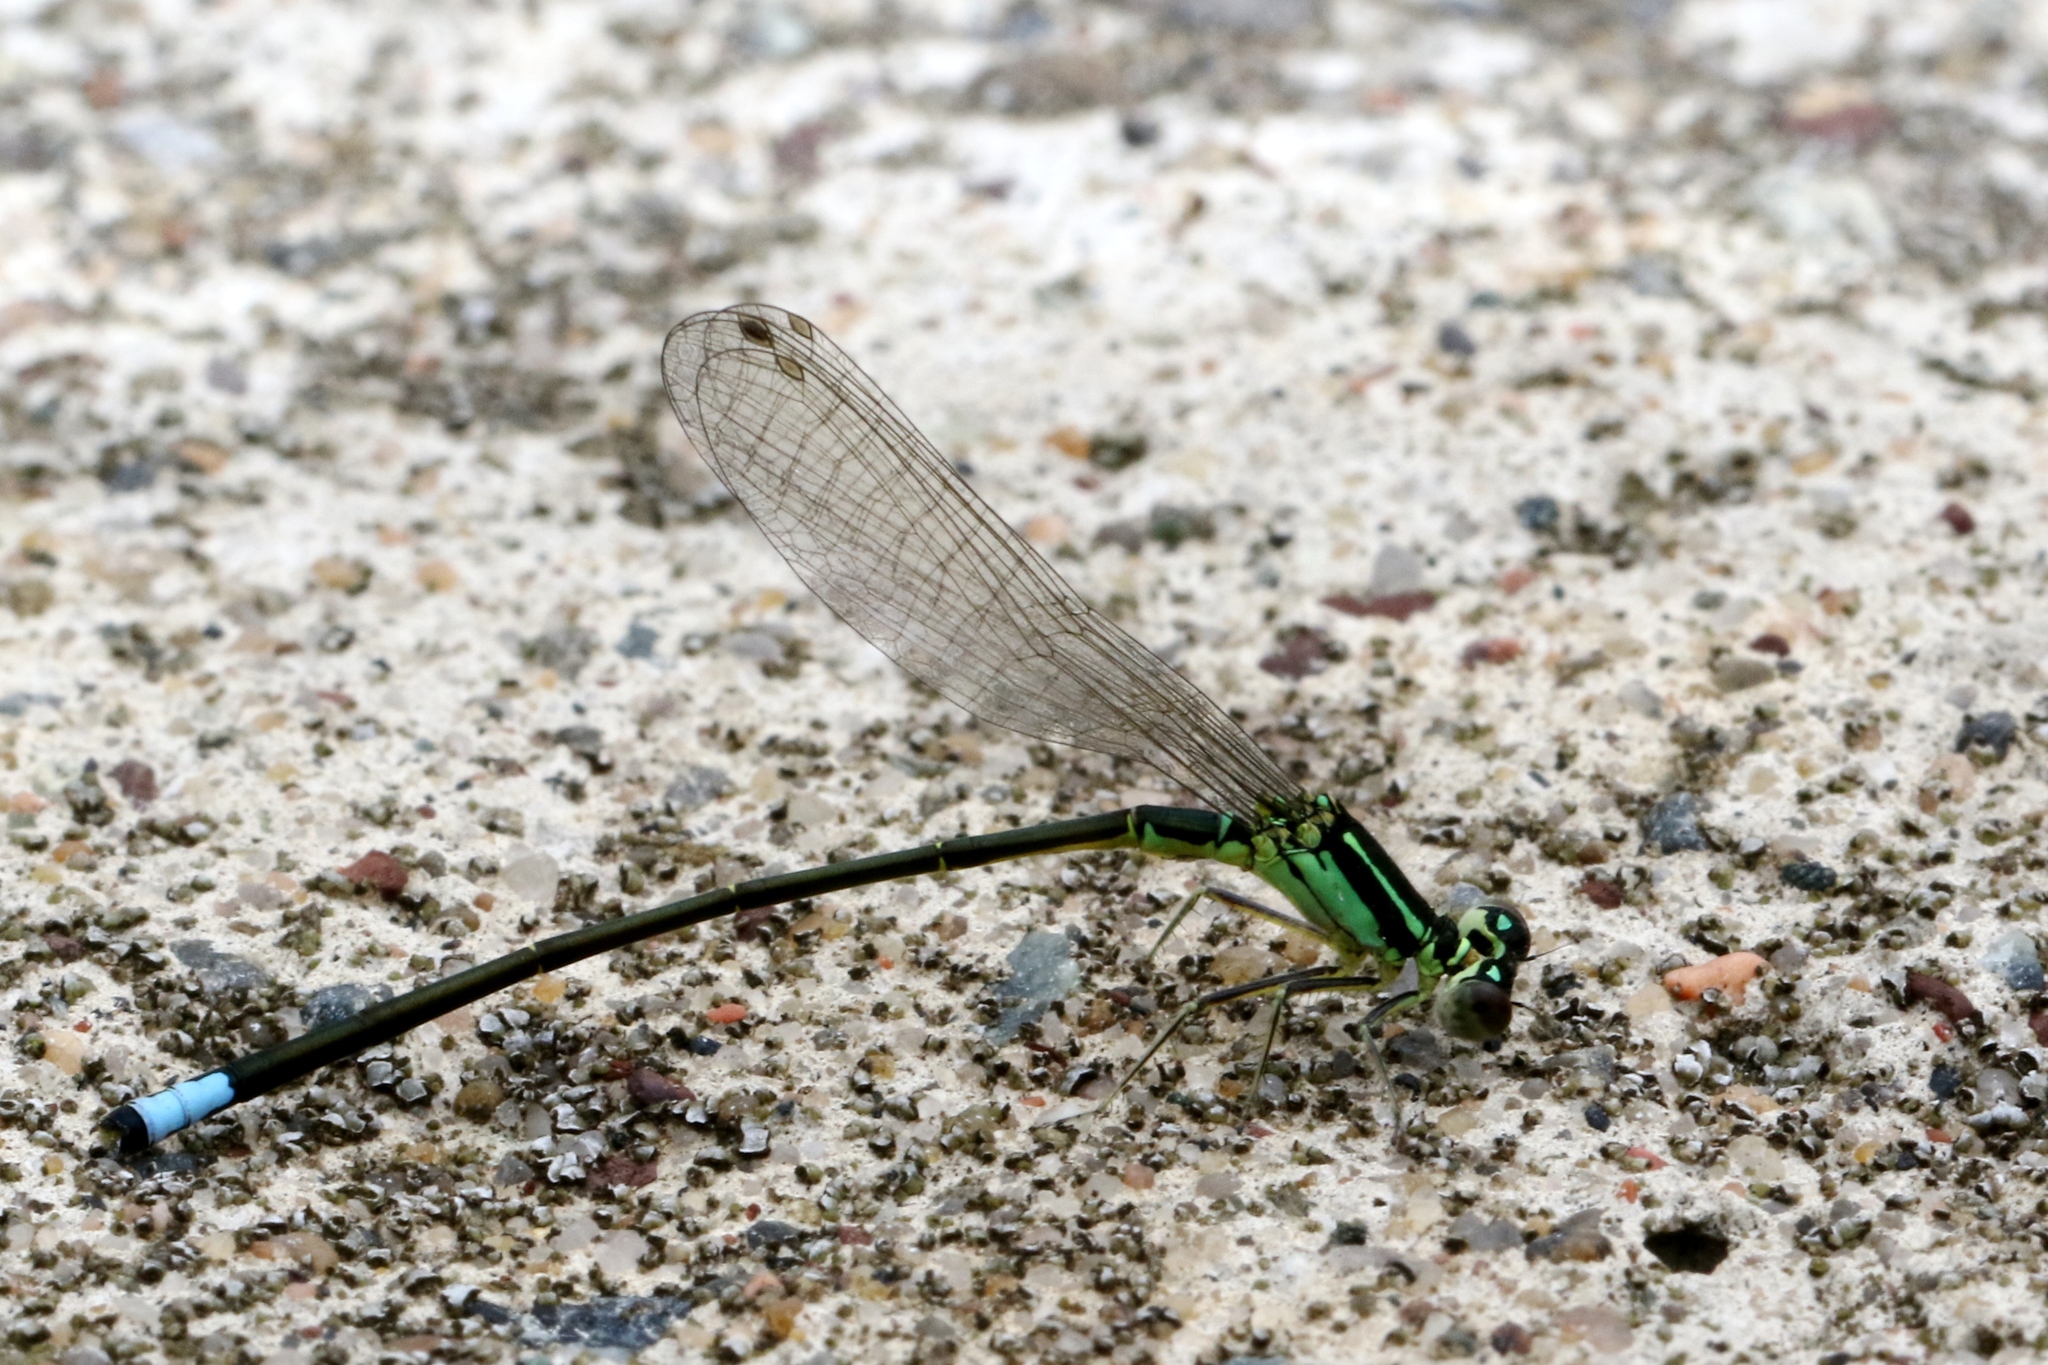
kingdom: Animalia
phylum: Arthropoda
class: Insecta
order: Odonata
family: Coenagrionidae
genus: Ischnura
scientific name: Ischnura verticalis
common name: Eastern forktail
